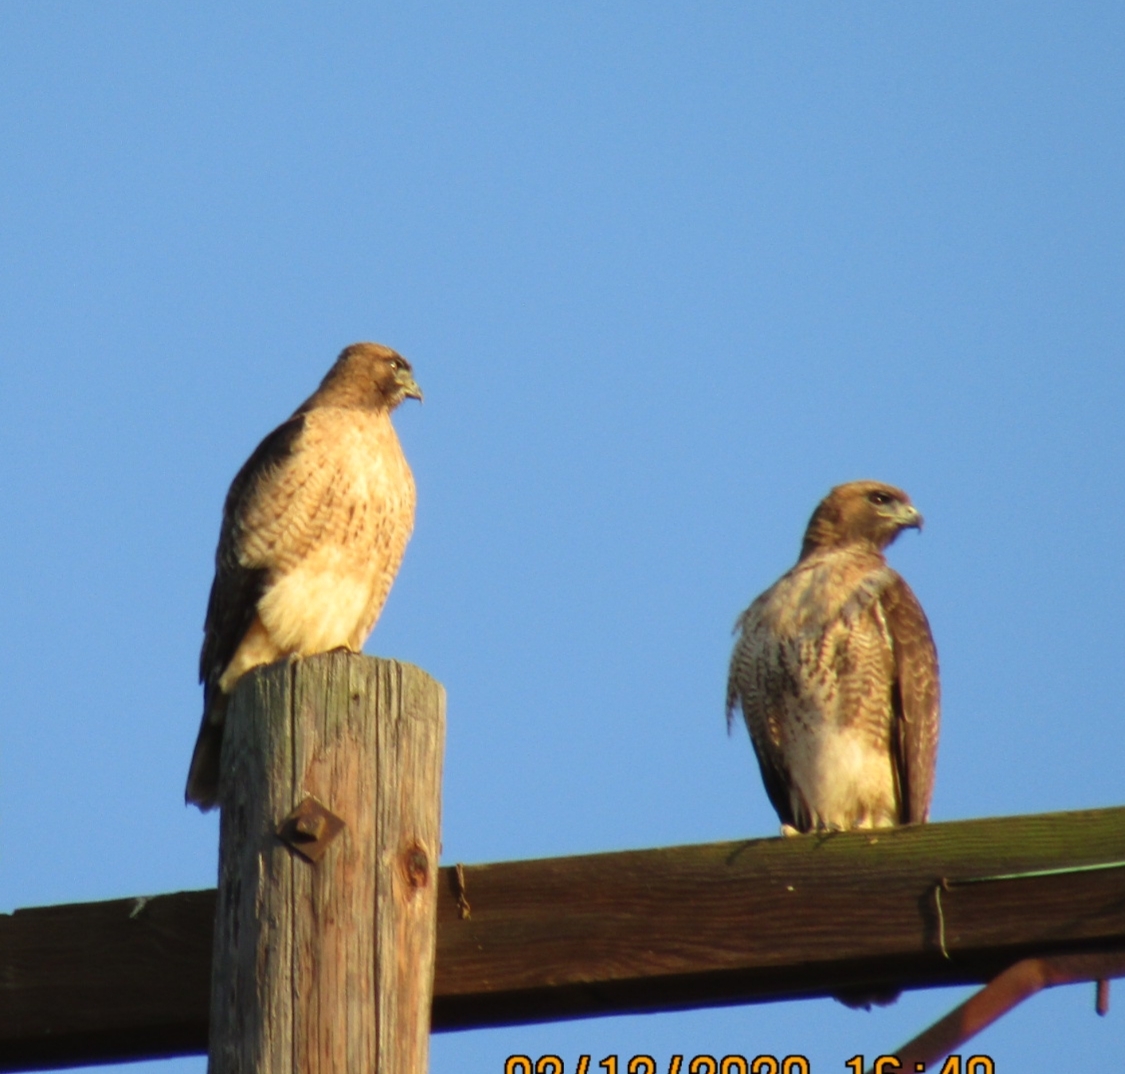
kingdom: Animalia
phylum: Chordata
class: Aves
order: Accipitriformes
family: Accipitridae
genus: Buteo
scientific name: Buteo jamaicensis
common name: Red-tailed hawk
